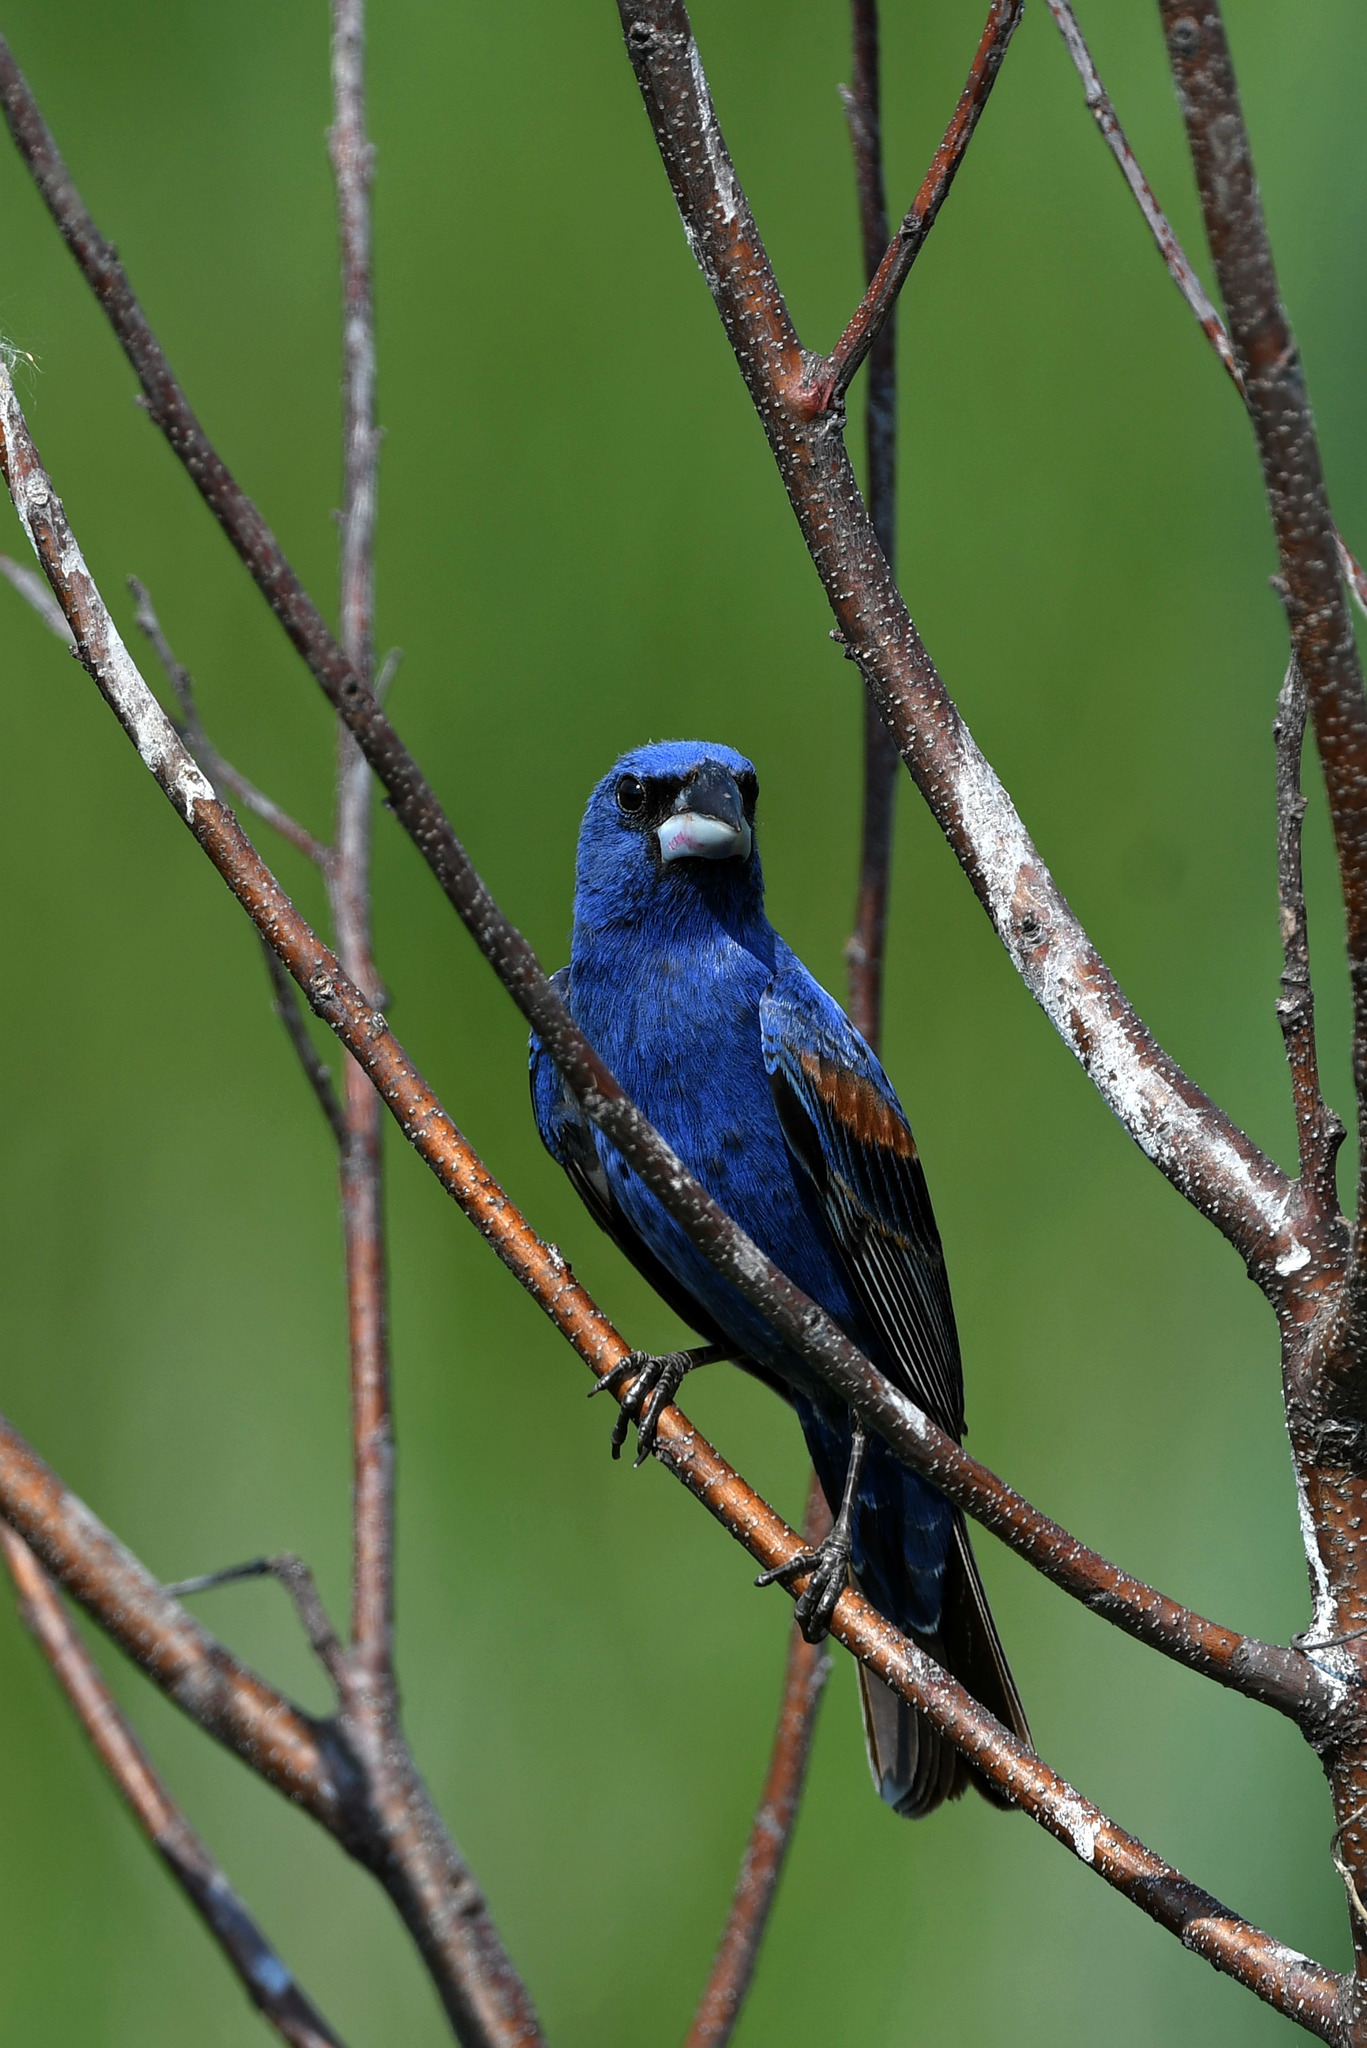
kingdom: Animalia
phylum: Chordata
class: Aves
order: Passeriformes
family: Cardinalidae
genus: Passerina
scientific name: Passerina caerulea
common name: Blue grosbeak
